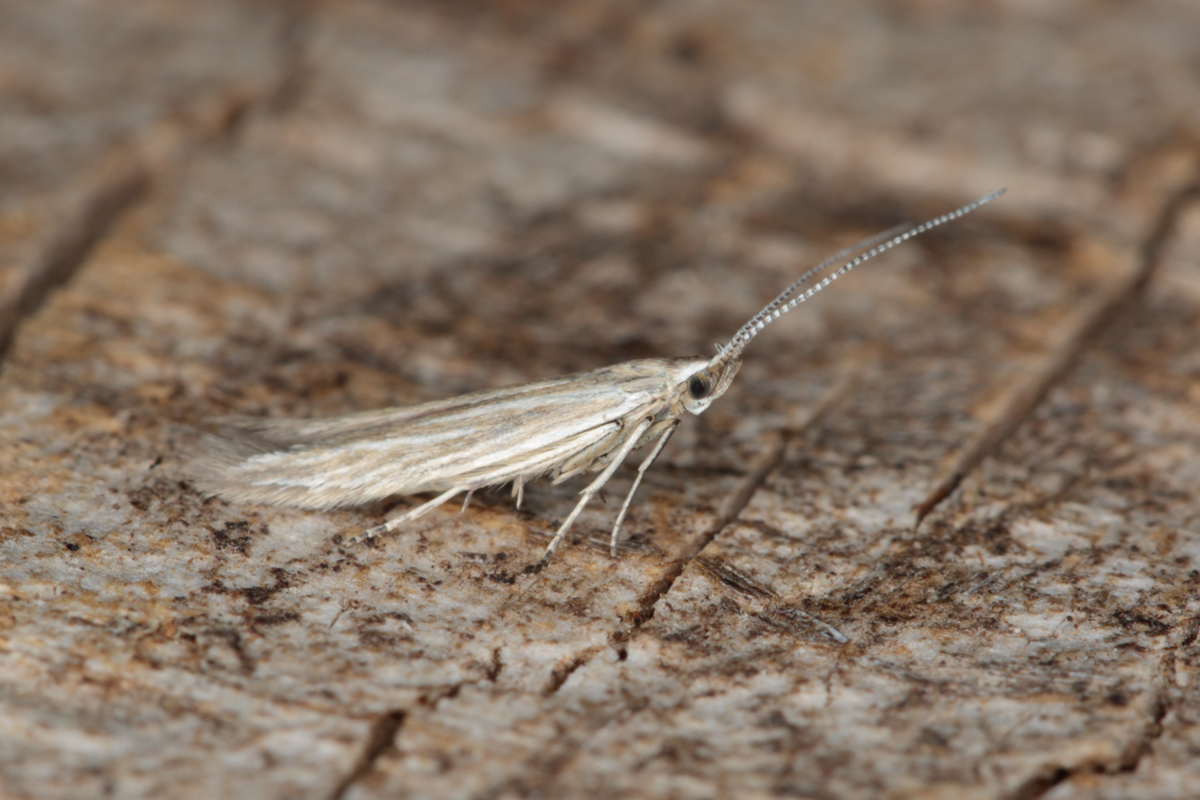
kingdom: Animalia
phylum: Arthropoda
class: Insecta
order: Lepidoptera
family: Coleophoridae
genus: Coleophora
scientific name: Coleophora striatipennella
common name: Hedge case-bearer
